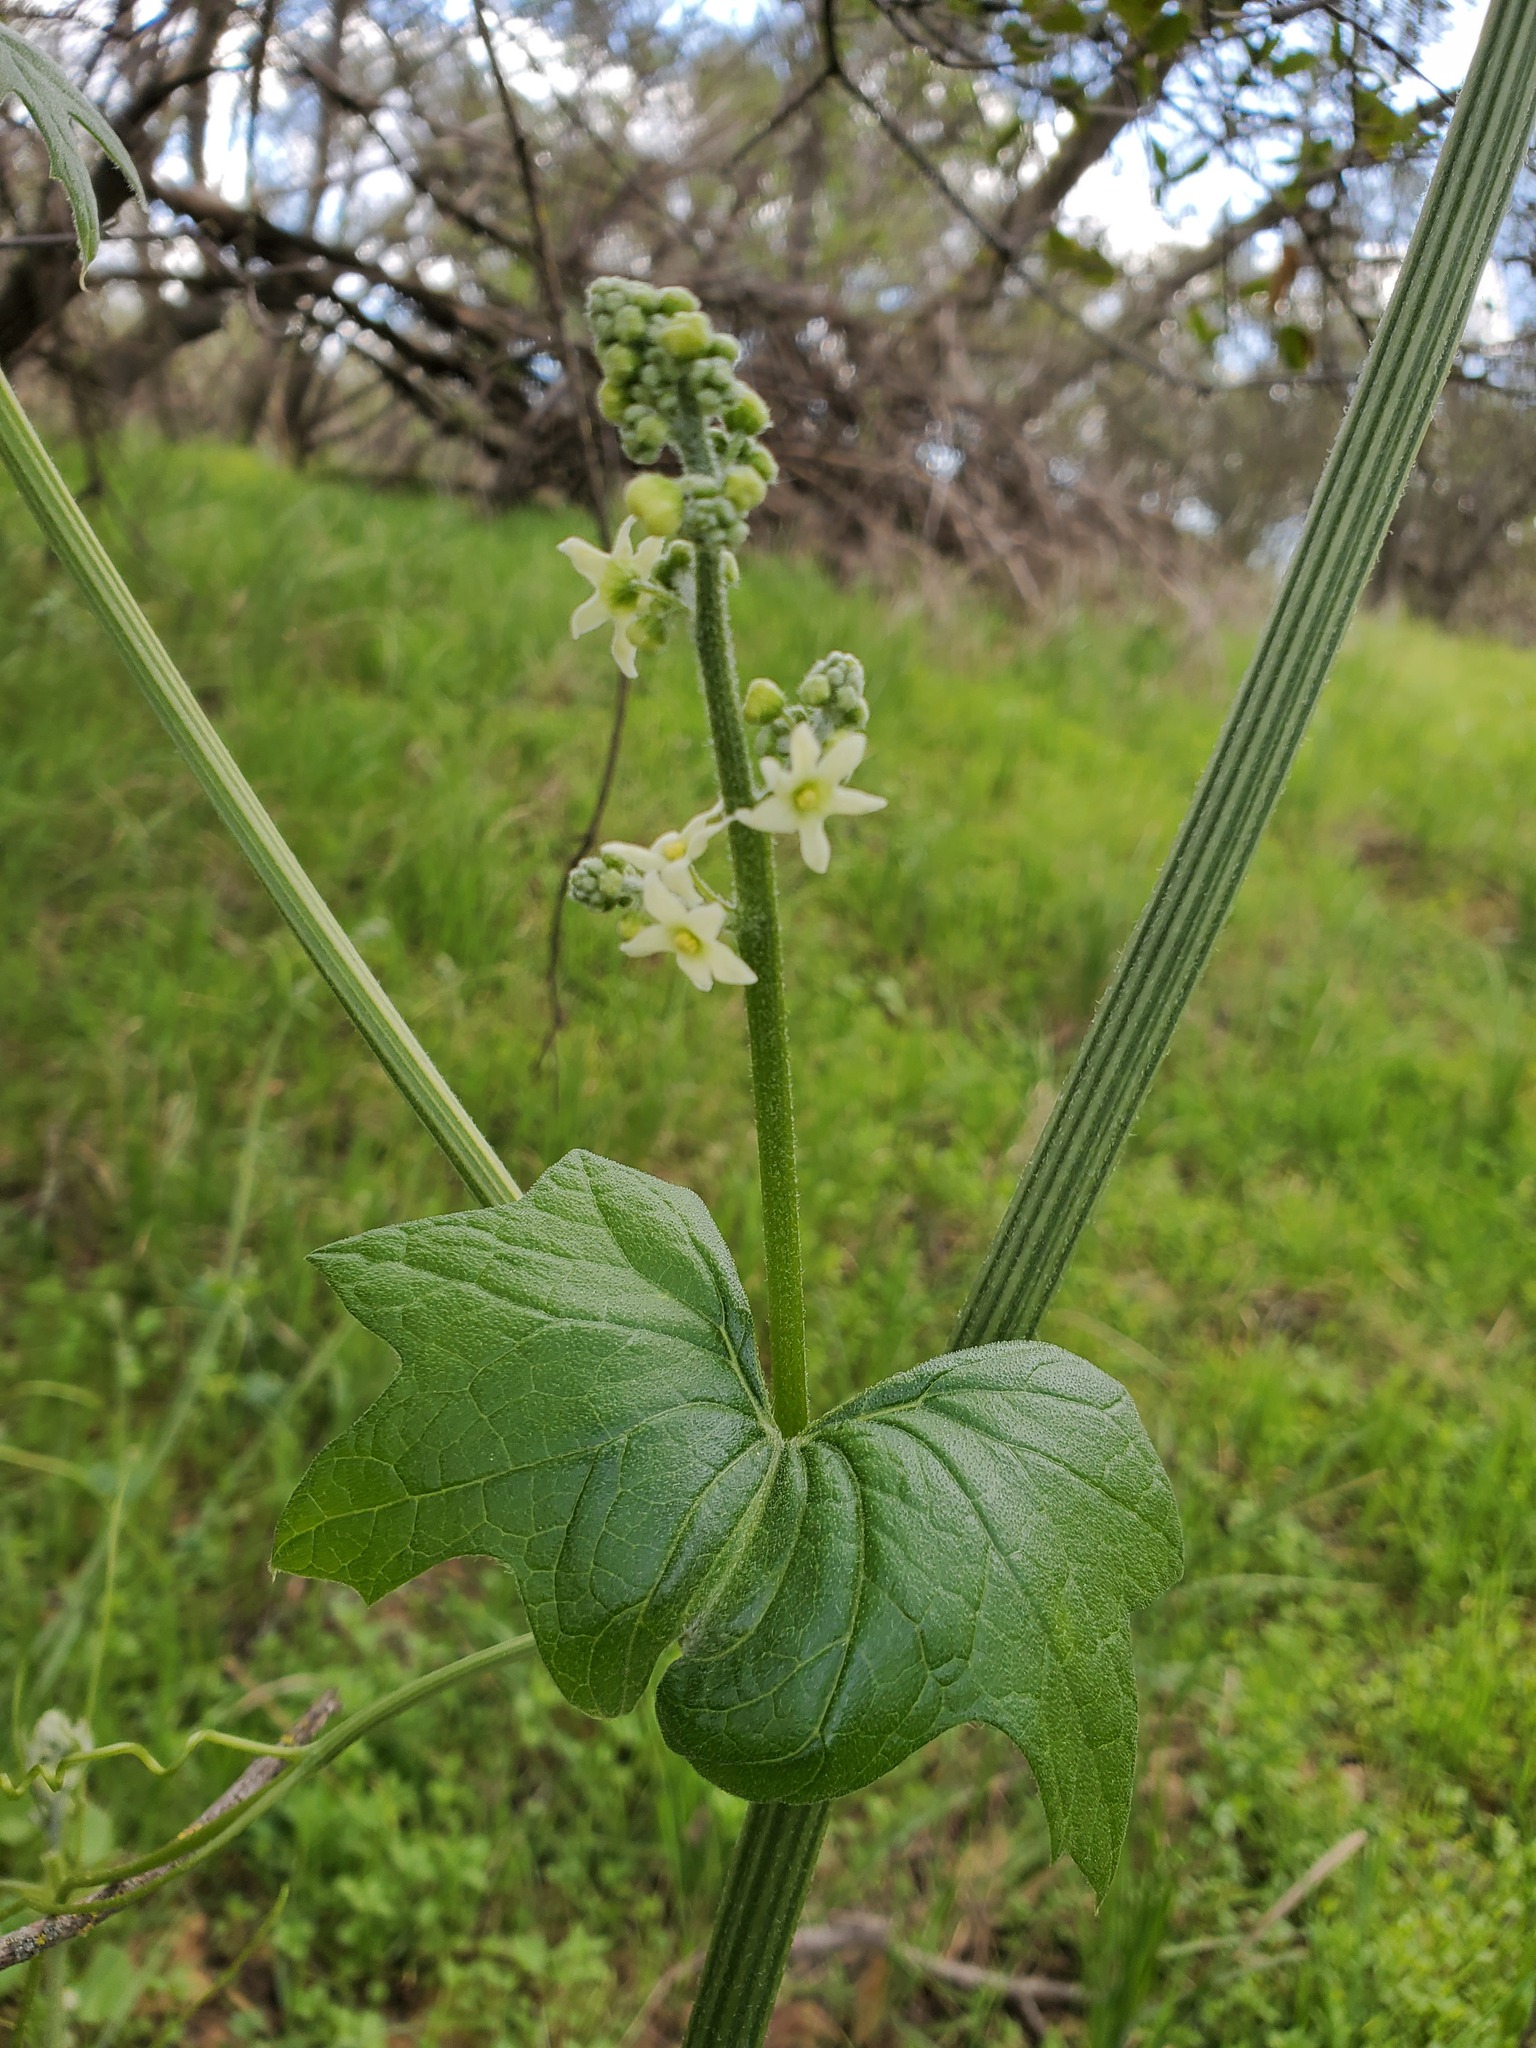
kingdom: Plantae
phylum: Tracheophyta
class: Magnoliopsida
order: Cucurbitales
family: Cucurbitaceae
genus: Marah
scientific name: Marah fabacea
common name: California manroot
